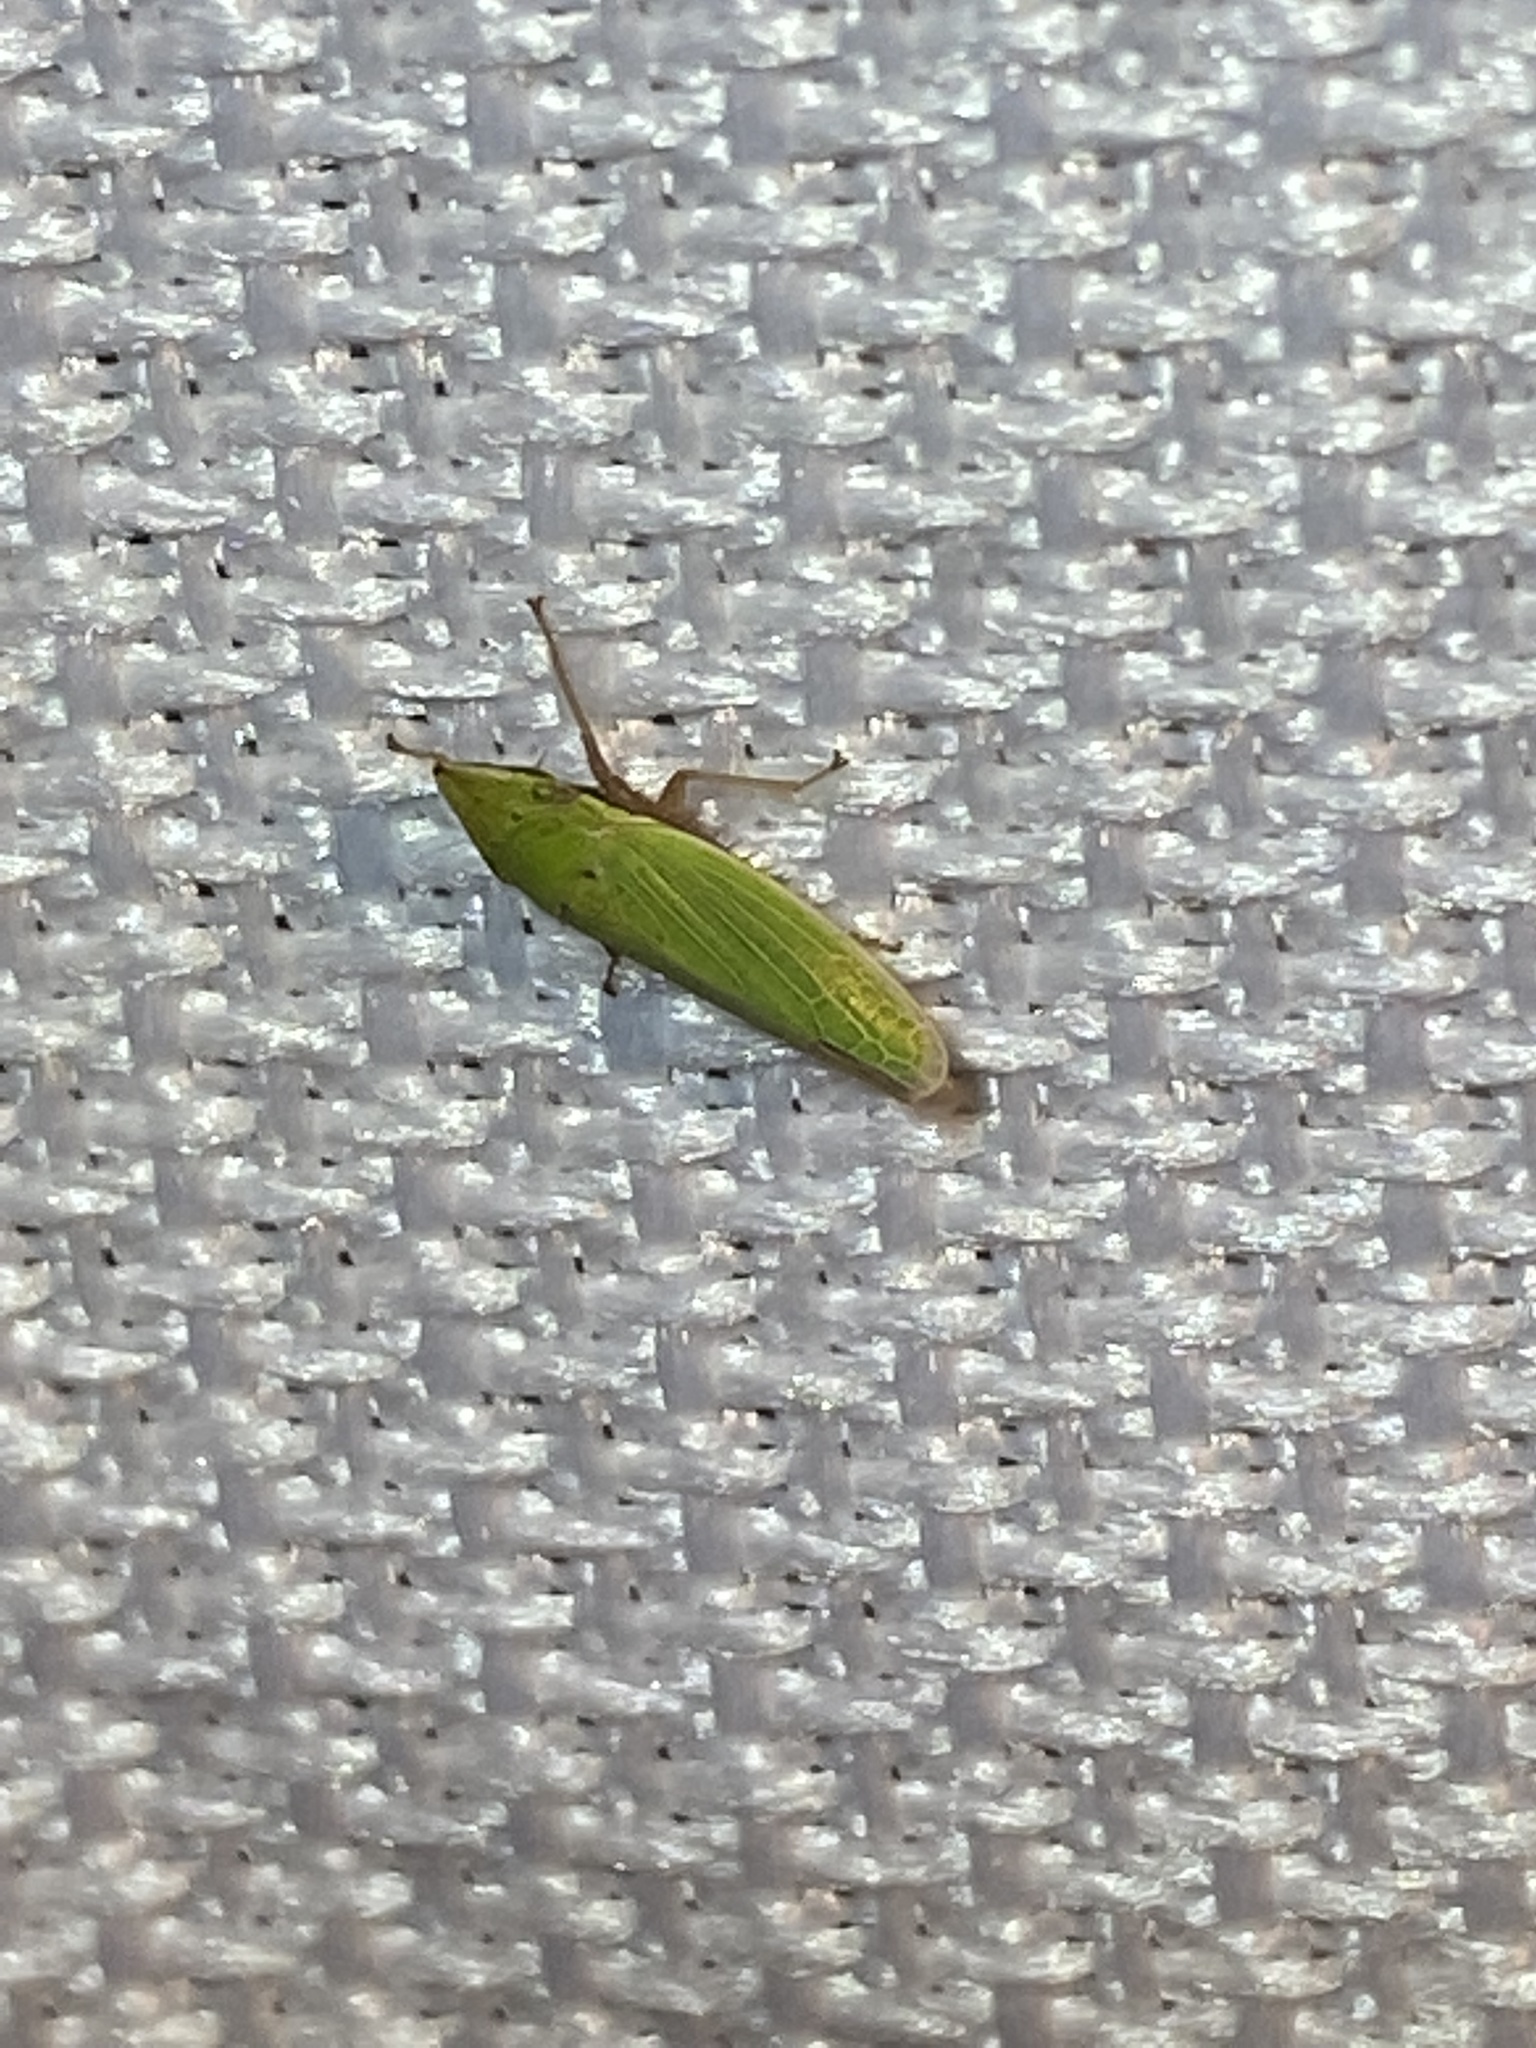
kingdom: Animalia
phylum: Arthropoda
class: Insecta
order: Hemiptera
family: Cicadellidae
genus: Draeculacephala
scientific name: Draeculacephala balli
